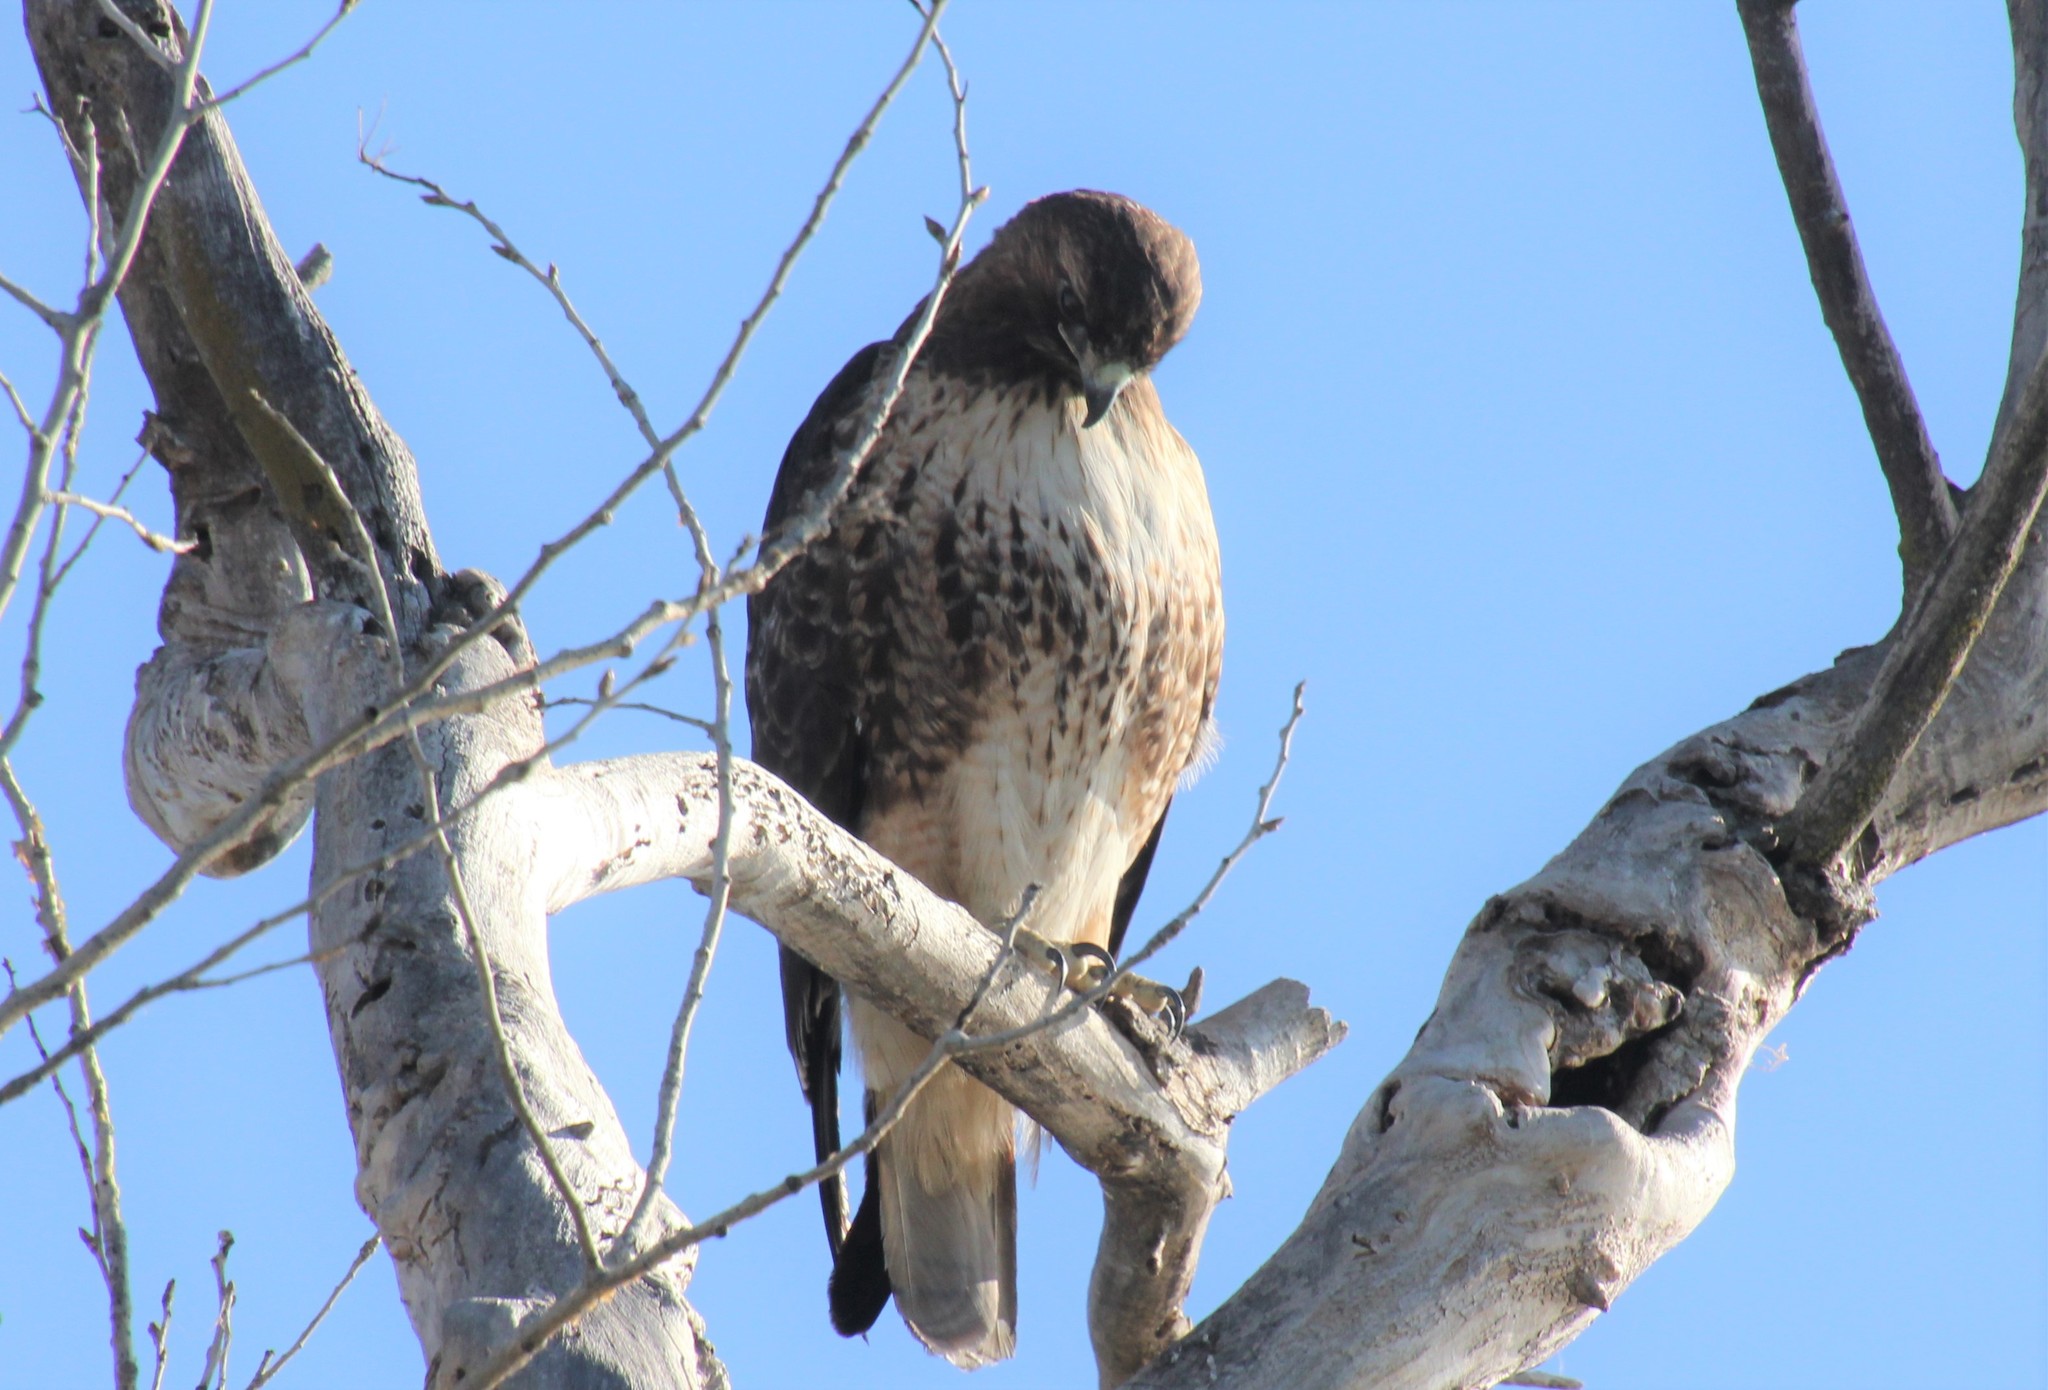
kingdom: Animalia
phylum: Chordata
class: Aves
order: Accipitriformes
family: Accipitridae
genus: Buteo
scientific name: Buteo jamaicensis
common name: Red-tailed hawk
